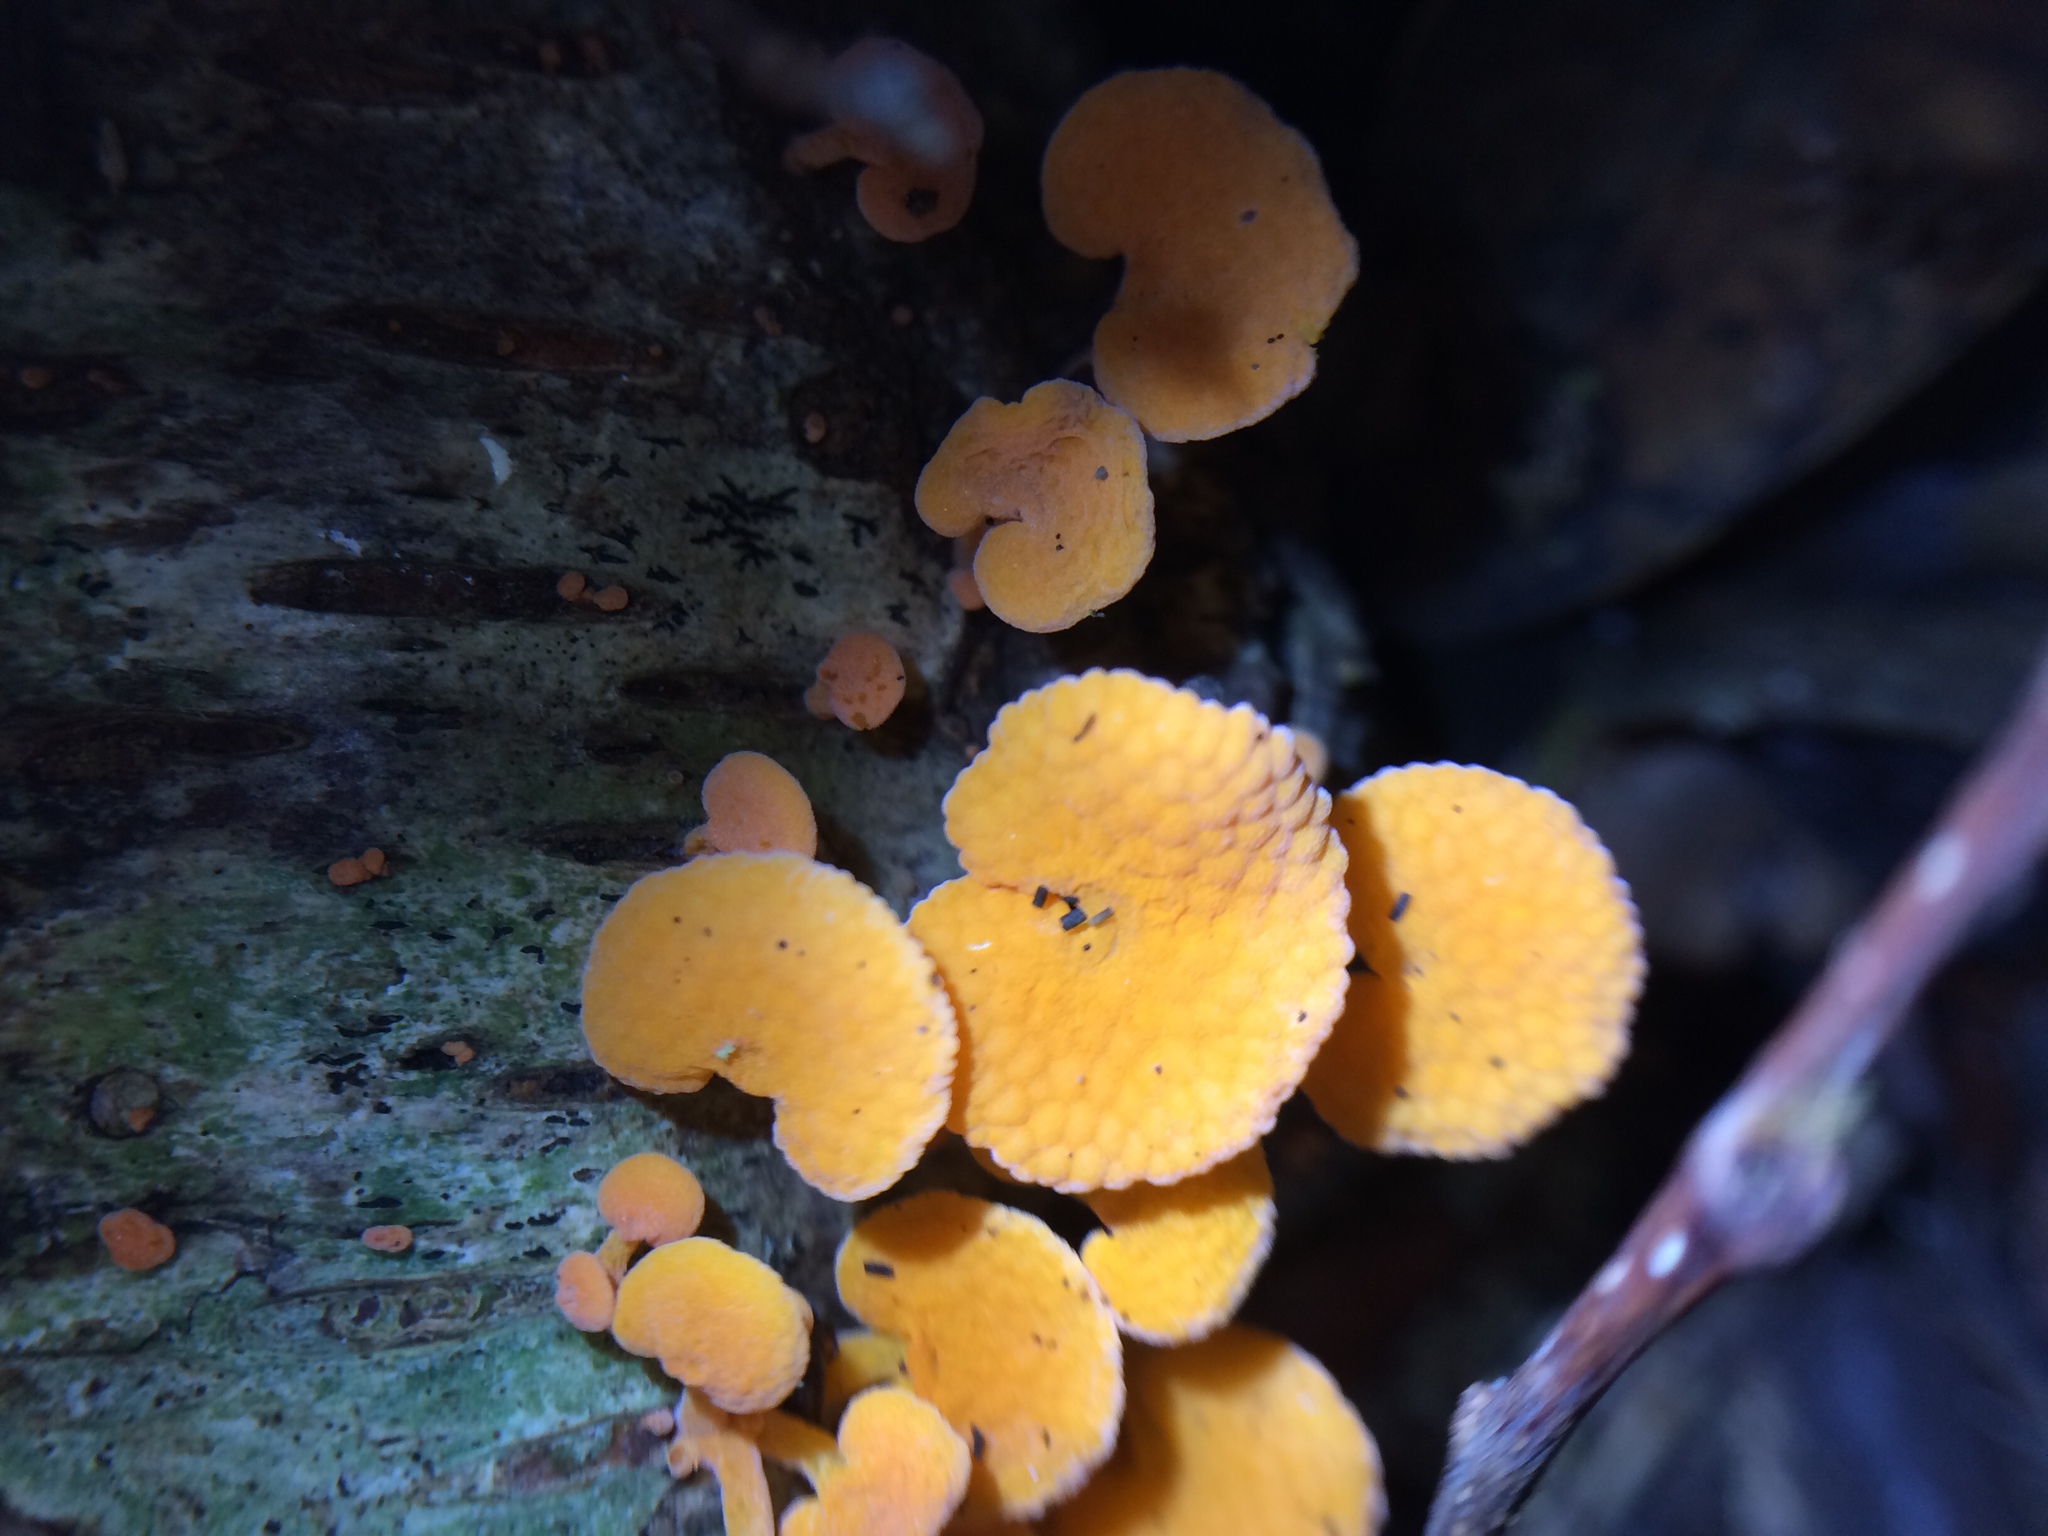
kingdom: Fungi
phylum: Basidiomycota
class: Agaricomycetes
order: Agaricales
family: Mycenaceae
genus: Favolaschia
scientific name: Favolaschia claudopus
